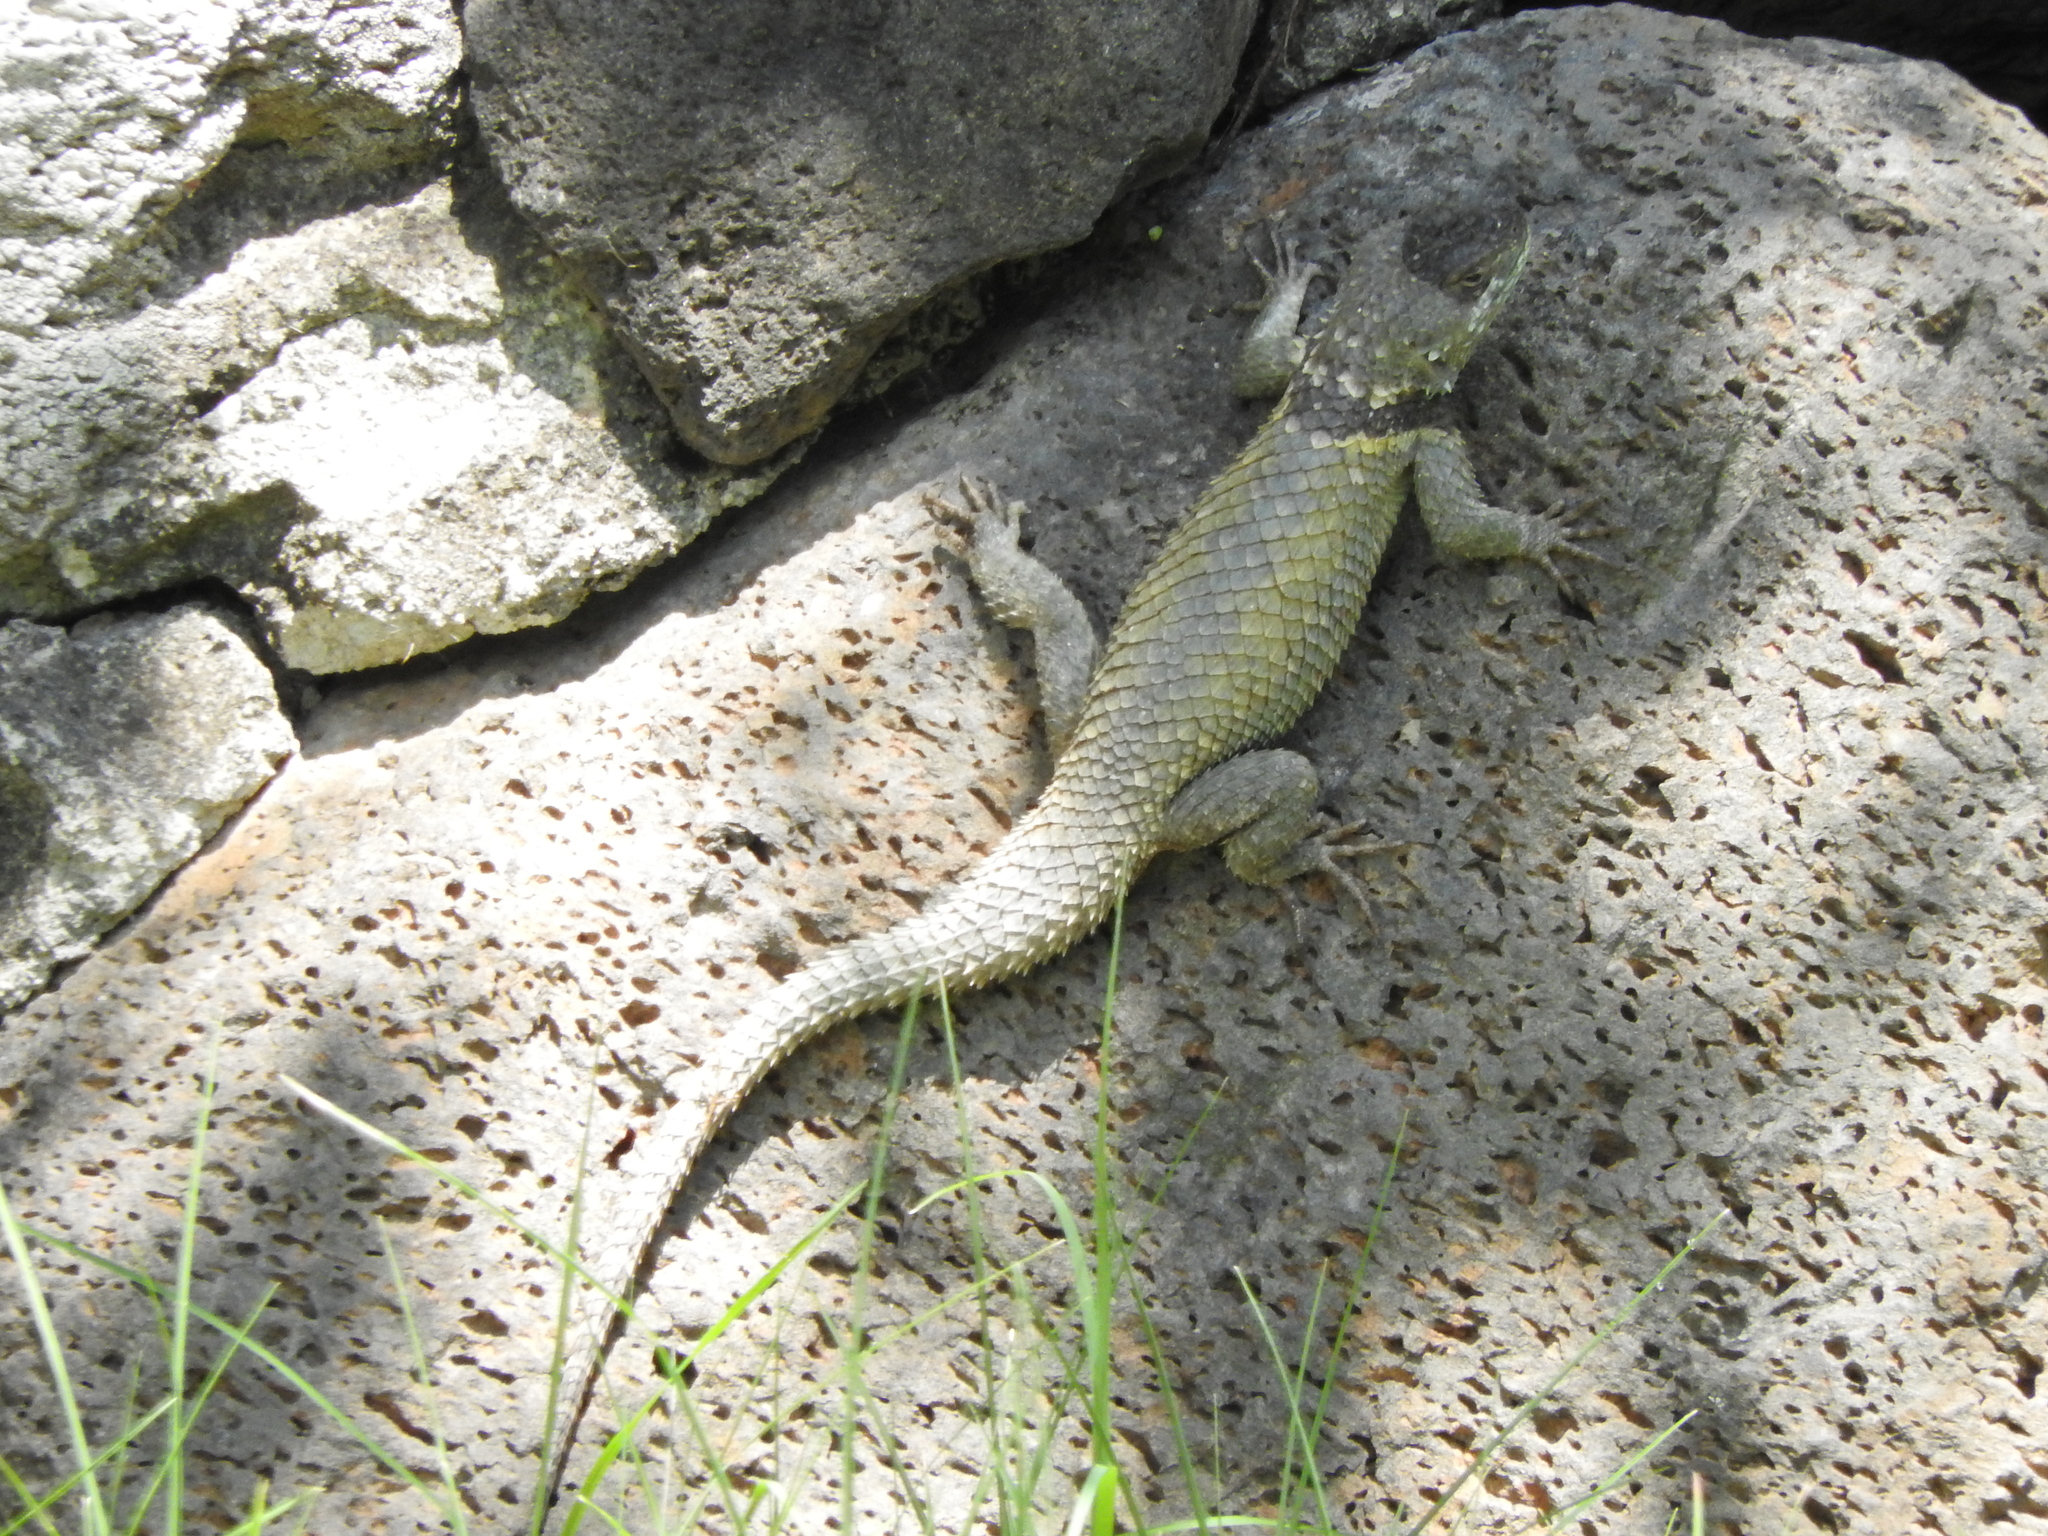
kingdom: Animalia
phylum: Chordata
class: Squamata
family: Phrynosomatidae
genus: Sceloporus
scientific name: Sceloporus torquatus
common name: Central plateau torquate lizard [melanogaster]
